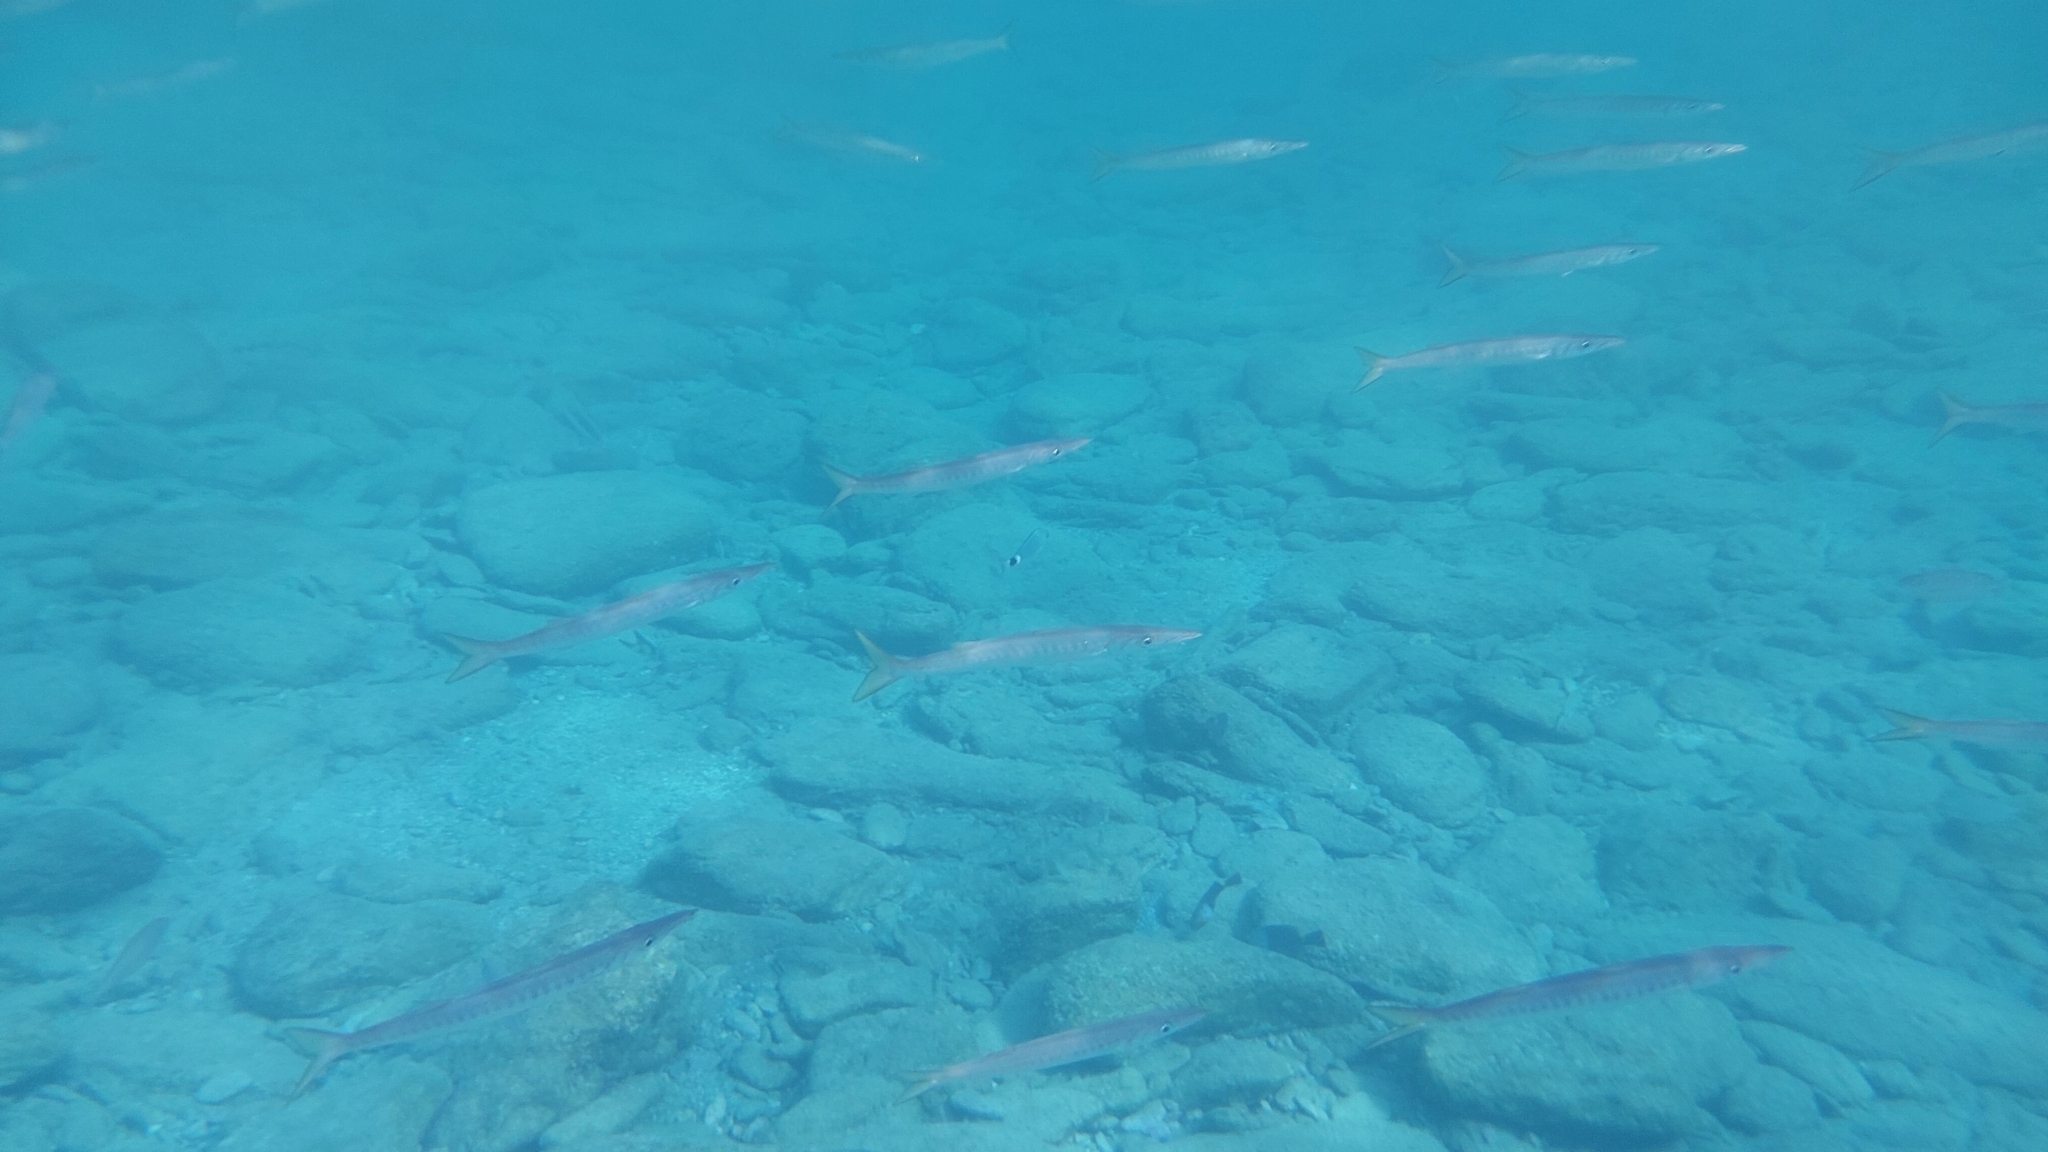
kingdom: Animalia
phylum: Chordata
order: Perciformes
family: Sphyraenidae
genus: Sphyraena
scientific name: Sphyraena viridensis
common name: Yellowmouth barracuda
